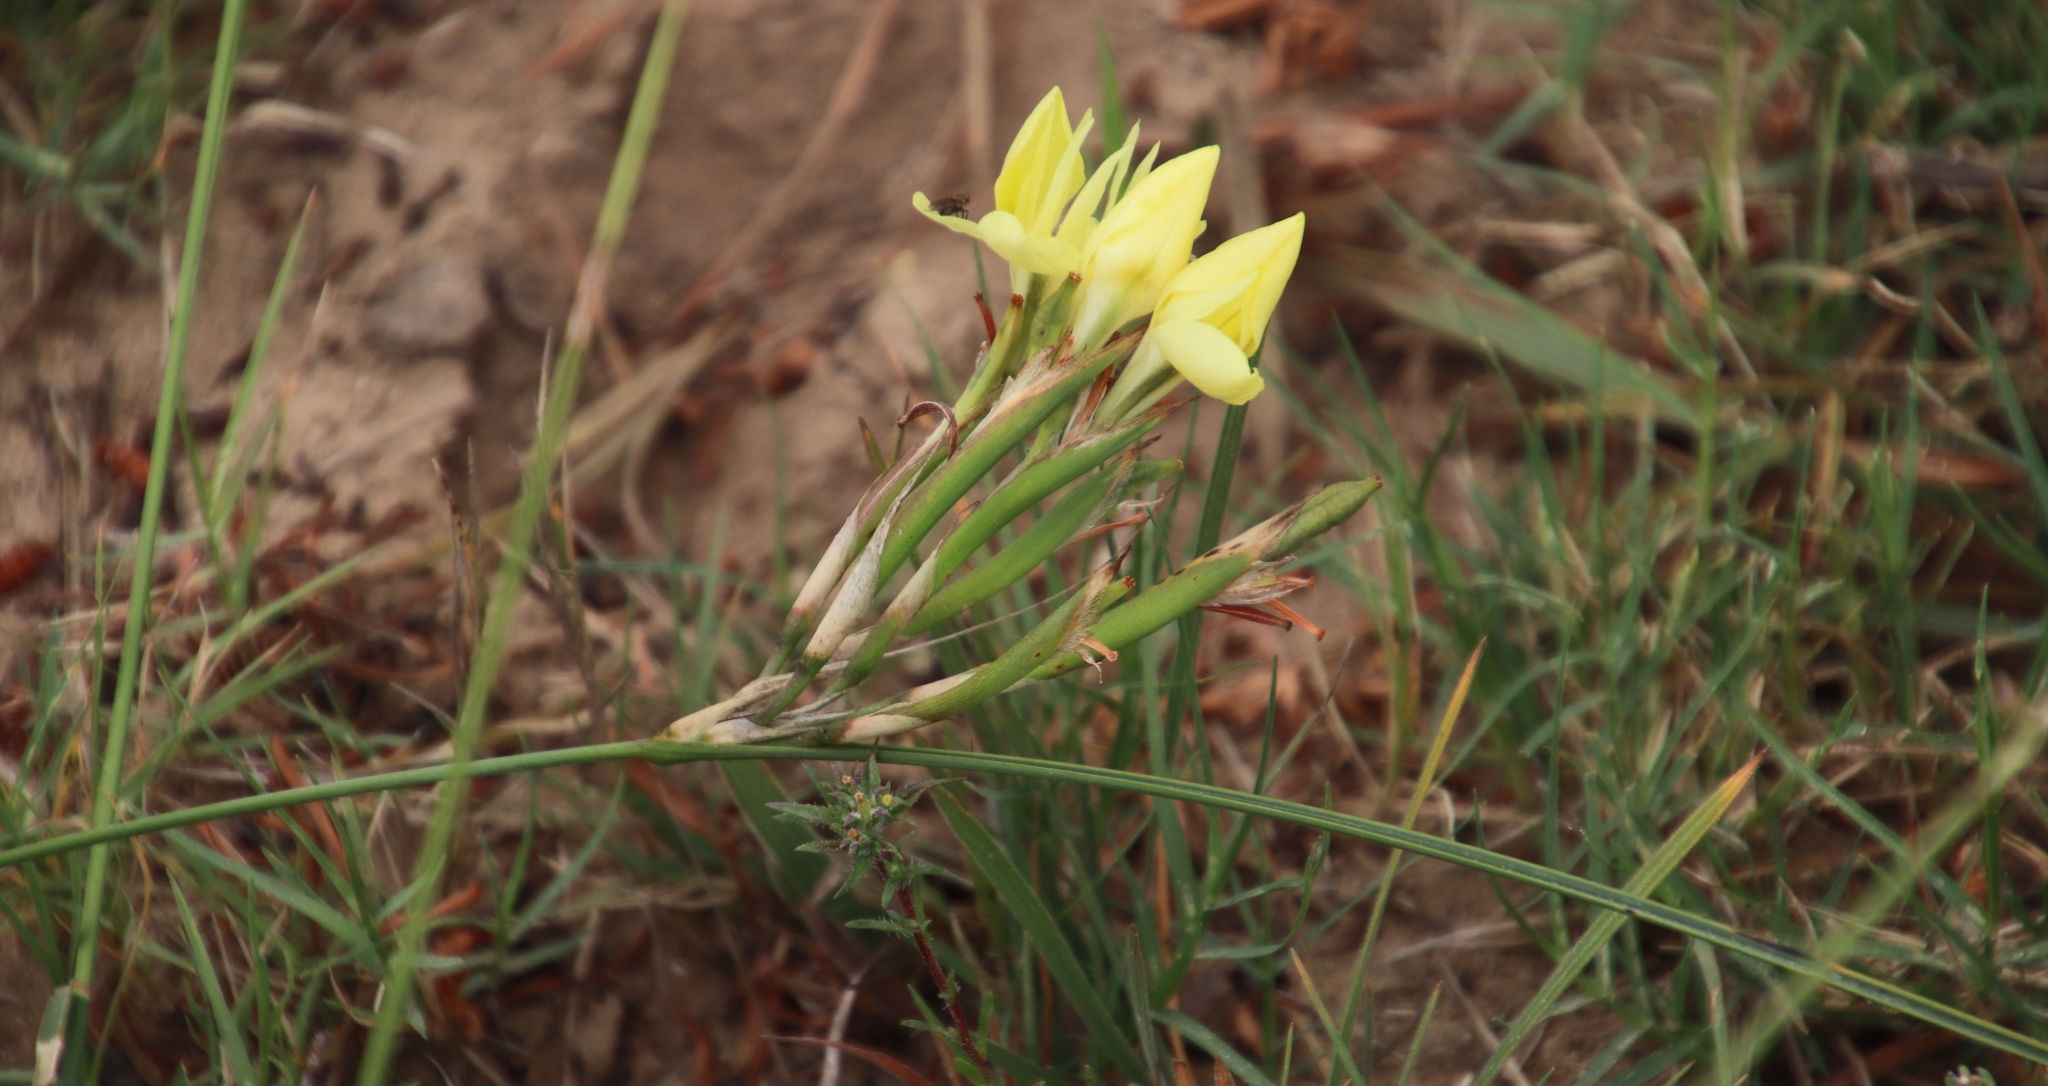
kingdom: Plantae
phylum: Tracheophyta
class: Liliopsida
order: Asparagales
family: Iridaceae
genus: Moraea
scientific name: Moraea fugax
